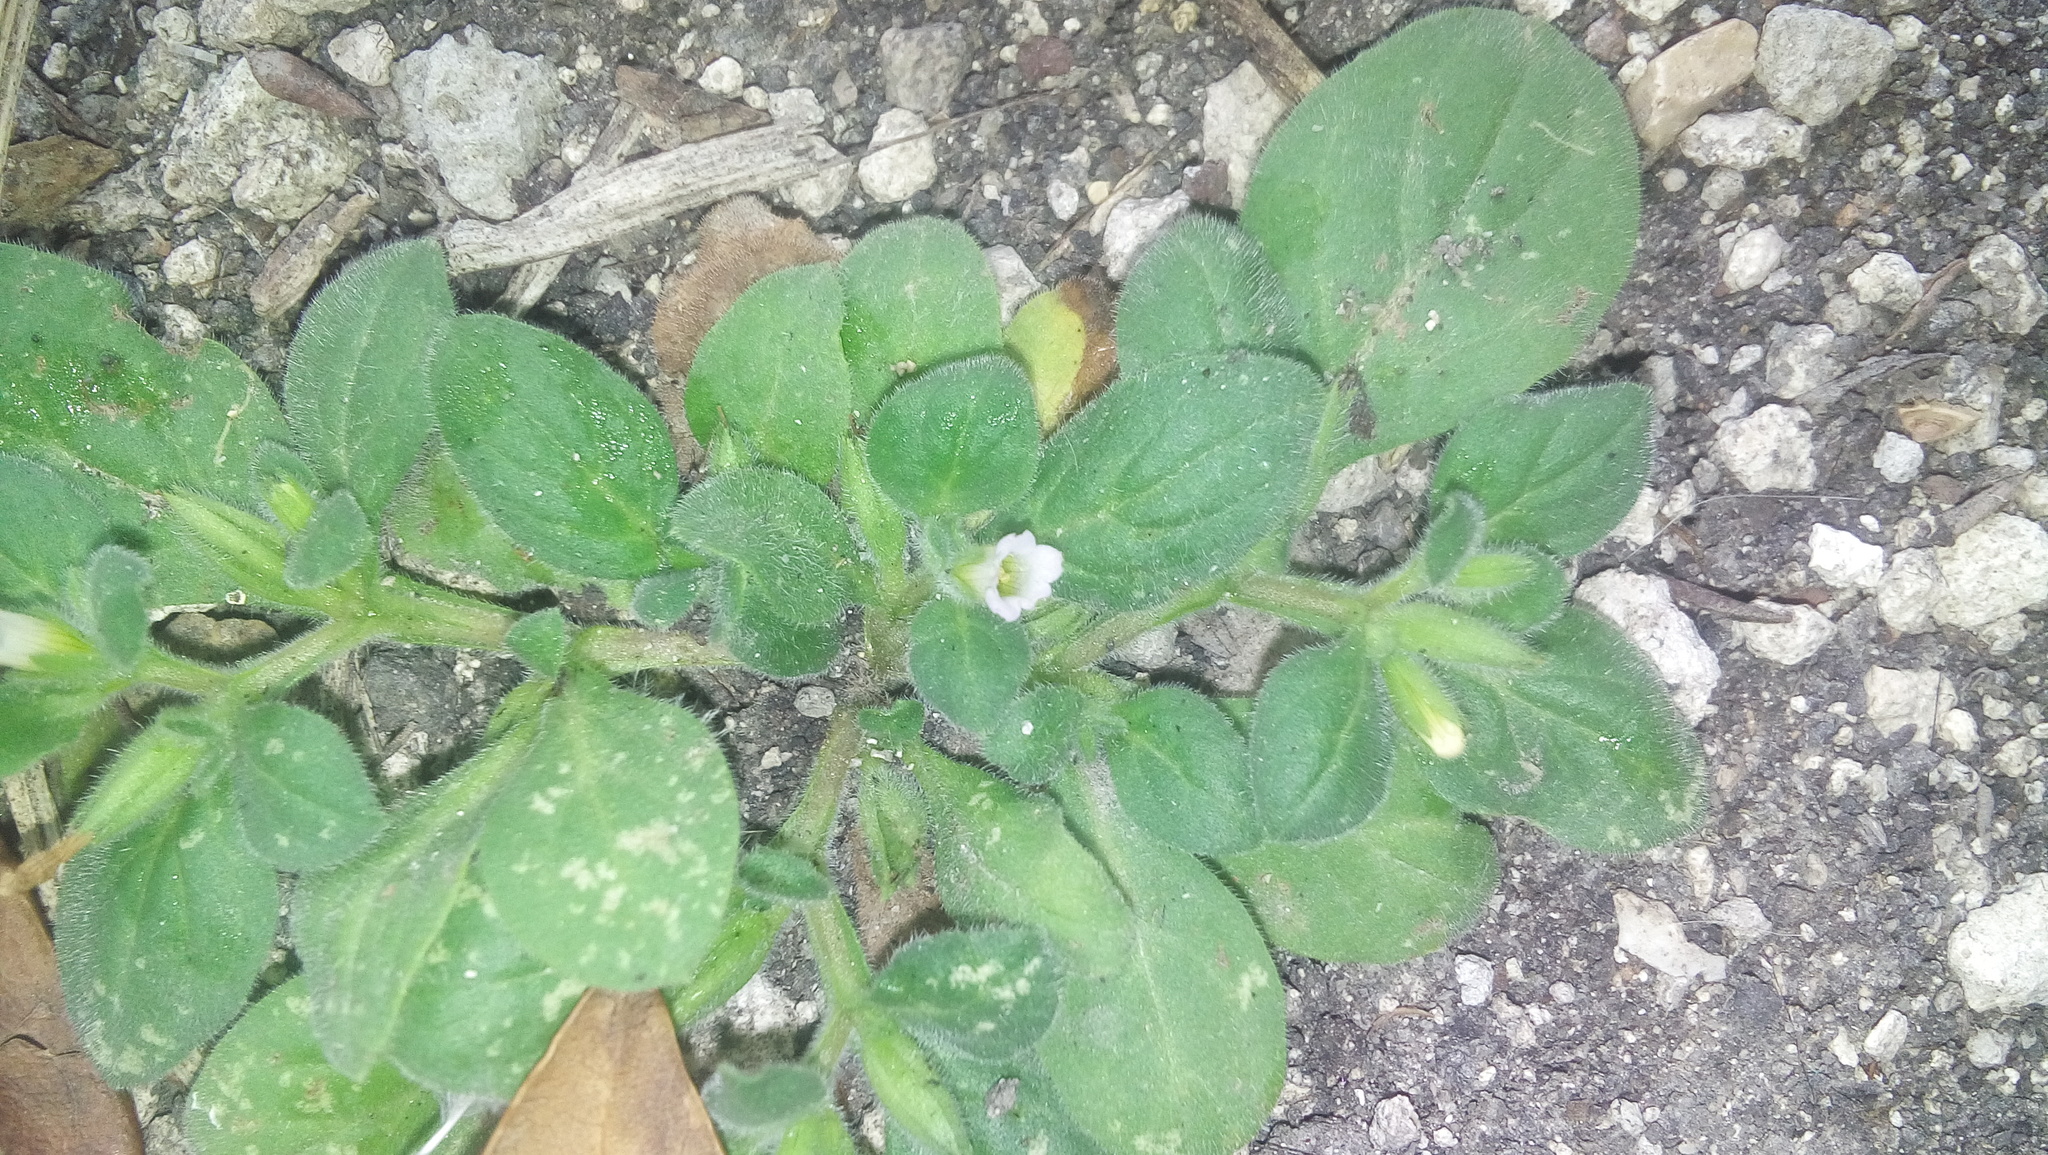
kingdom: Plantae
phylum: Tracheophyta
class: Magnoliopsida
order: Boraginales
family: Namaceae
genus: Nama
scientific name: Nama jamaicensis
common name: Jamaicanweed
